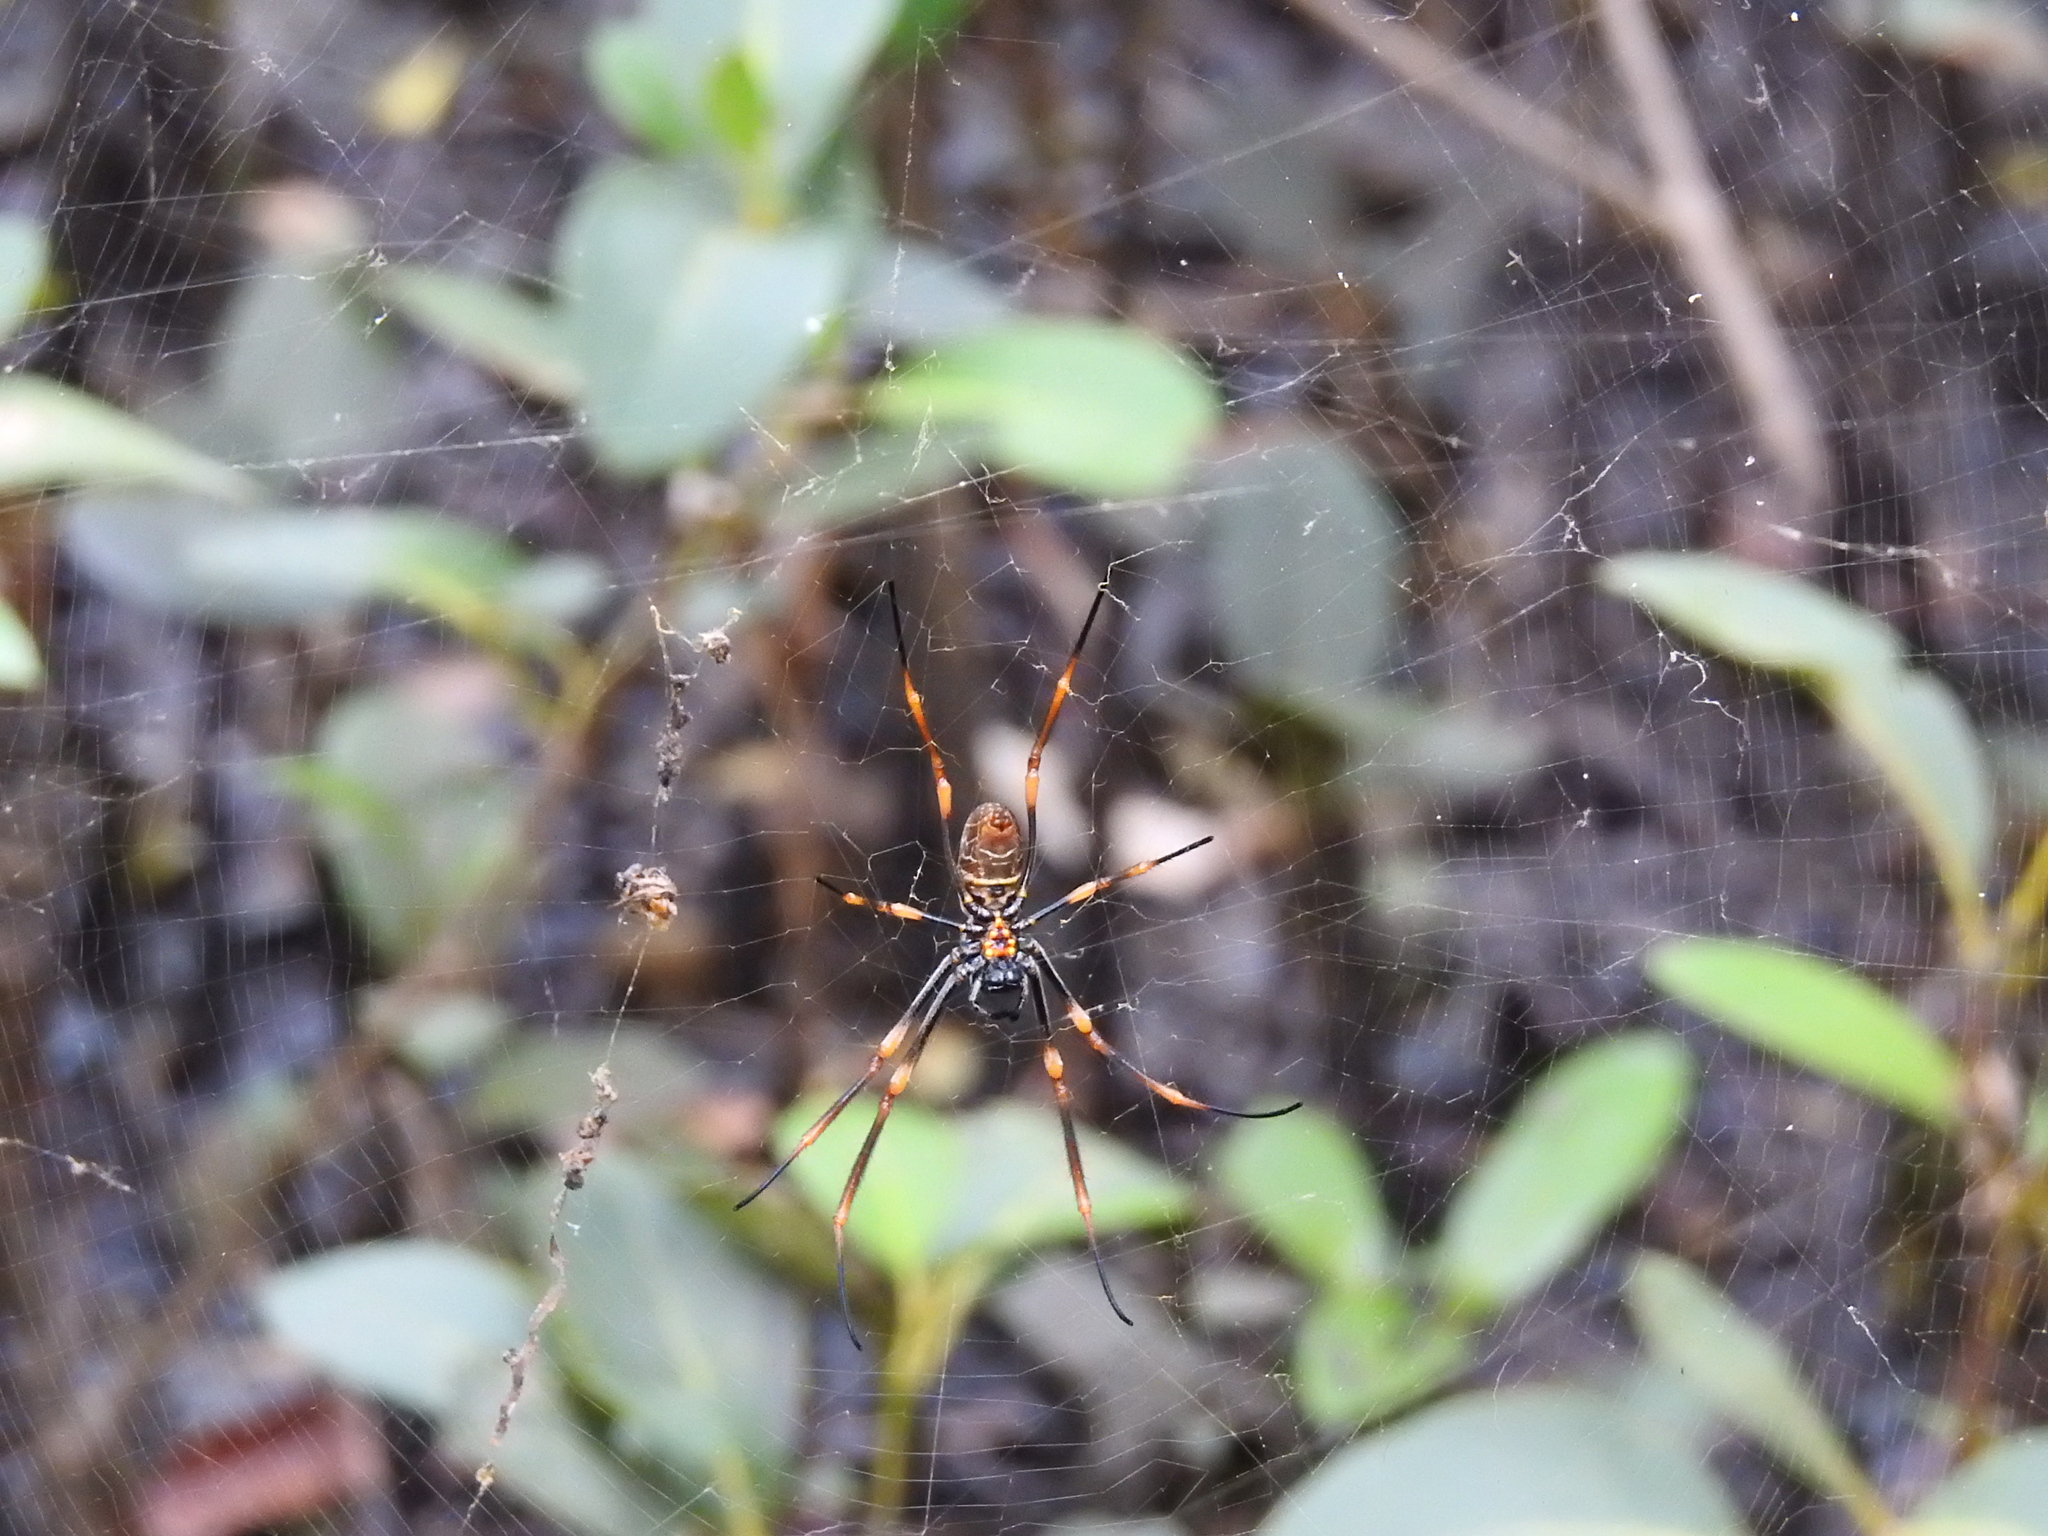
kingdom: Animalia
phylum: Arthropoda
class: Arachnida
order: Araneae
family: Araneidae
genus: Trichonephila
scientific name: Trichonephila plumipes
